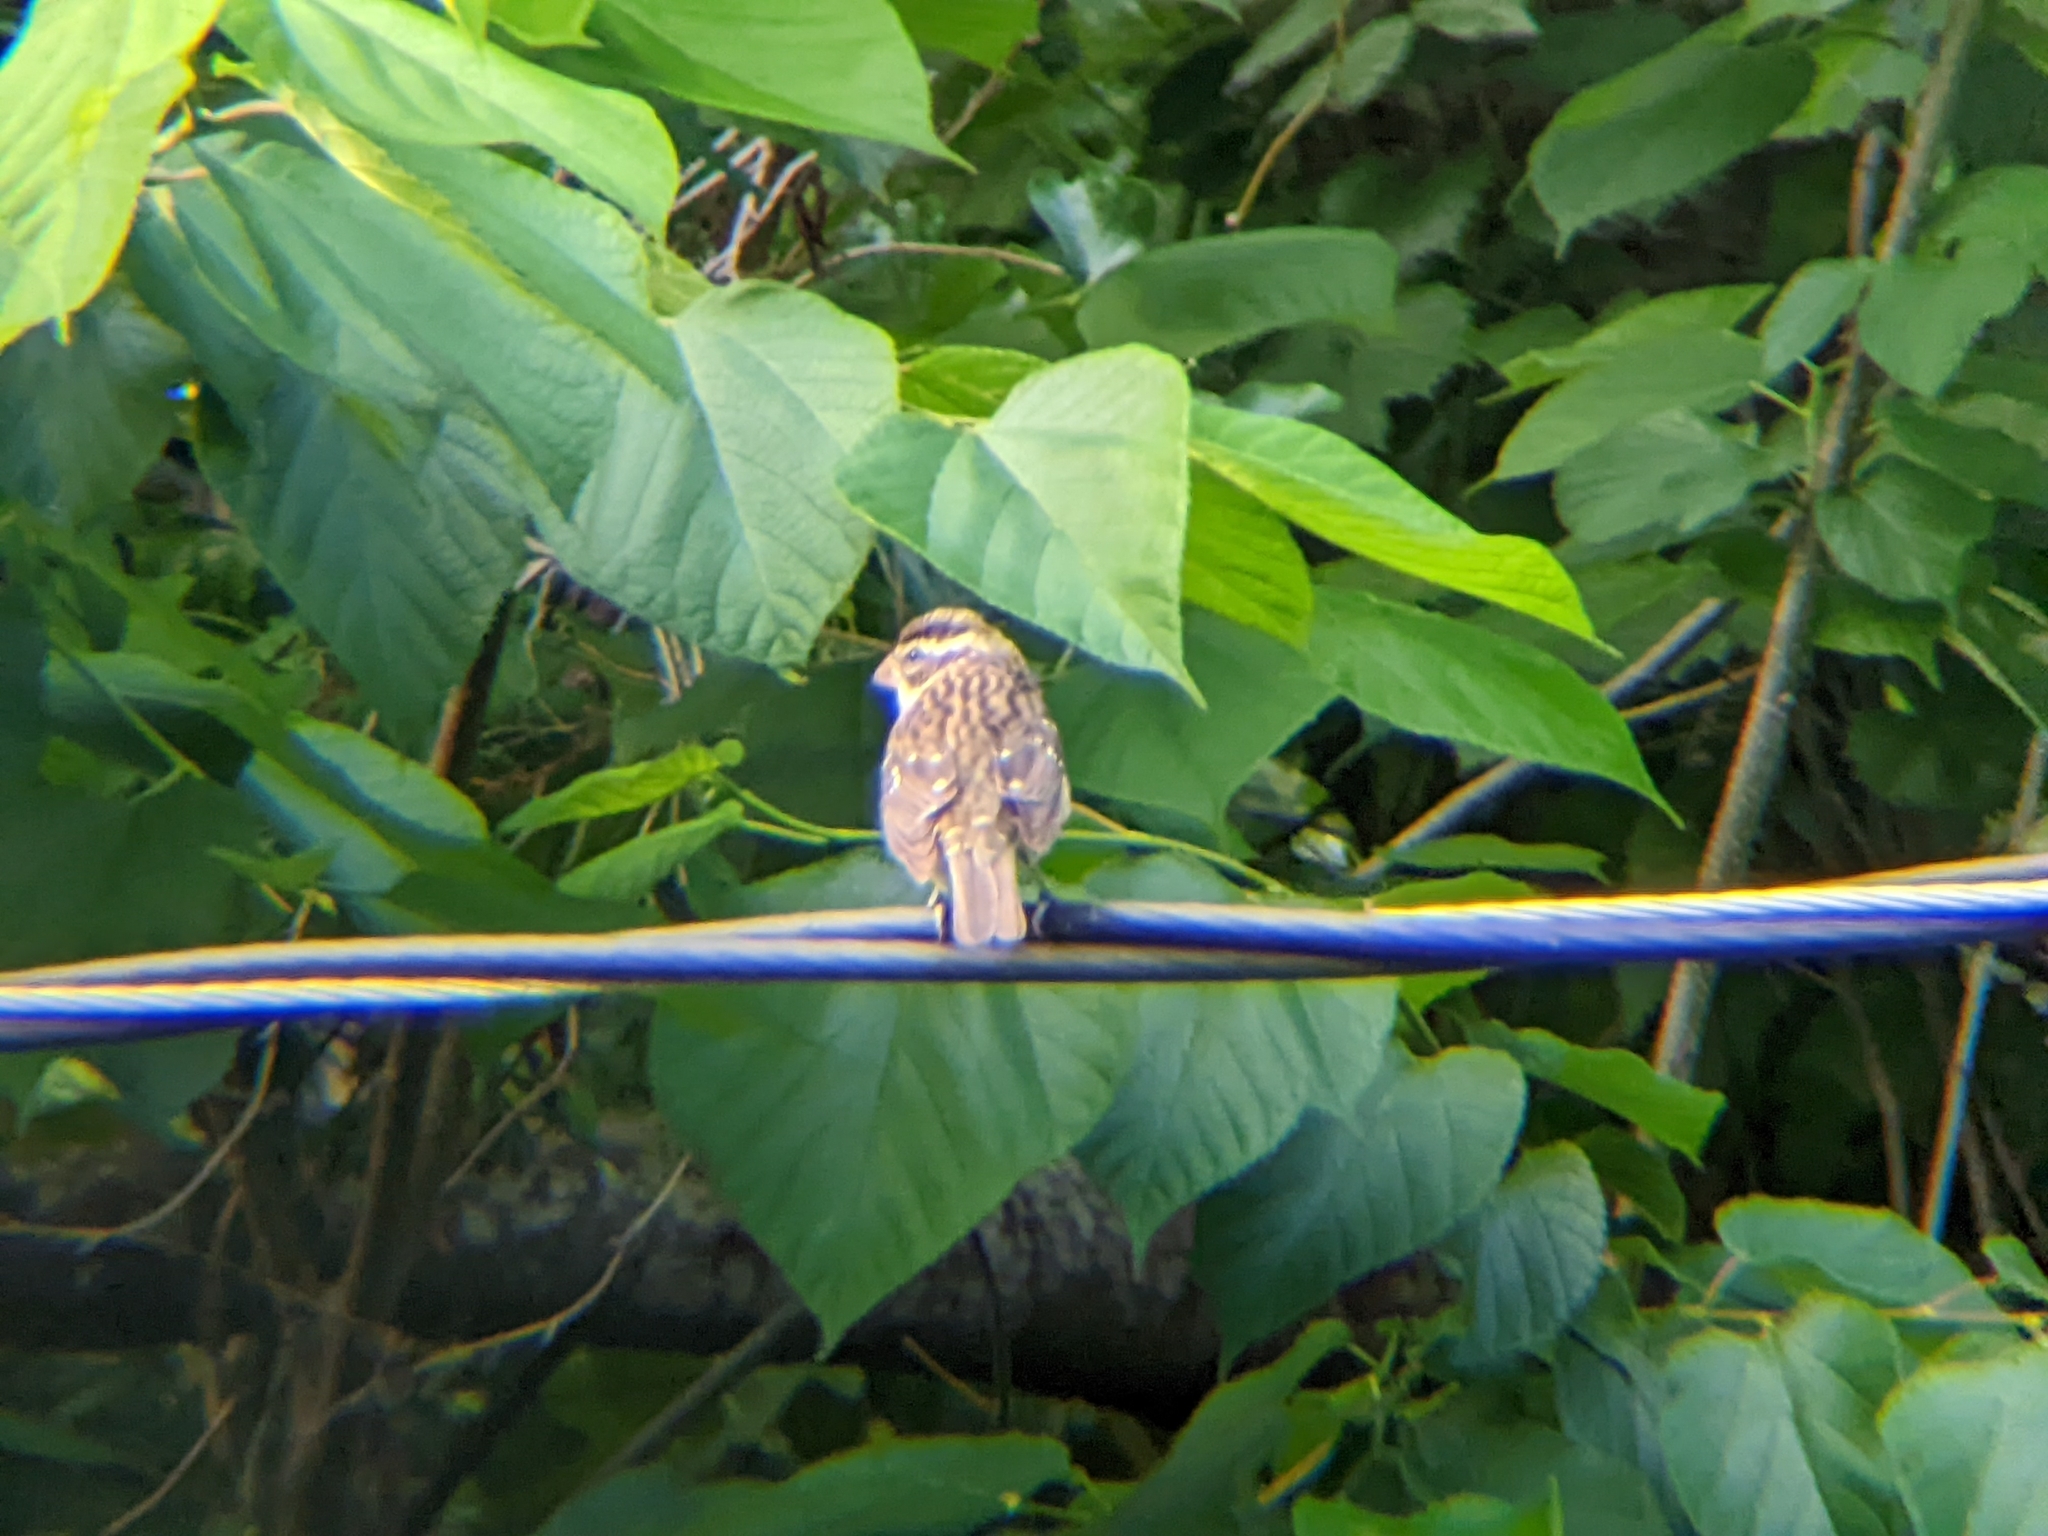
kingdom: Animalia
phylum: Chordata
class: Aves
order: Passeriformes
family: Cardinalidae
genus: Pheucticus
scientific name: Pheucticus ludovicianus
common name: Rose-breasted grosbeak
